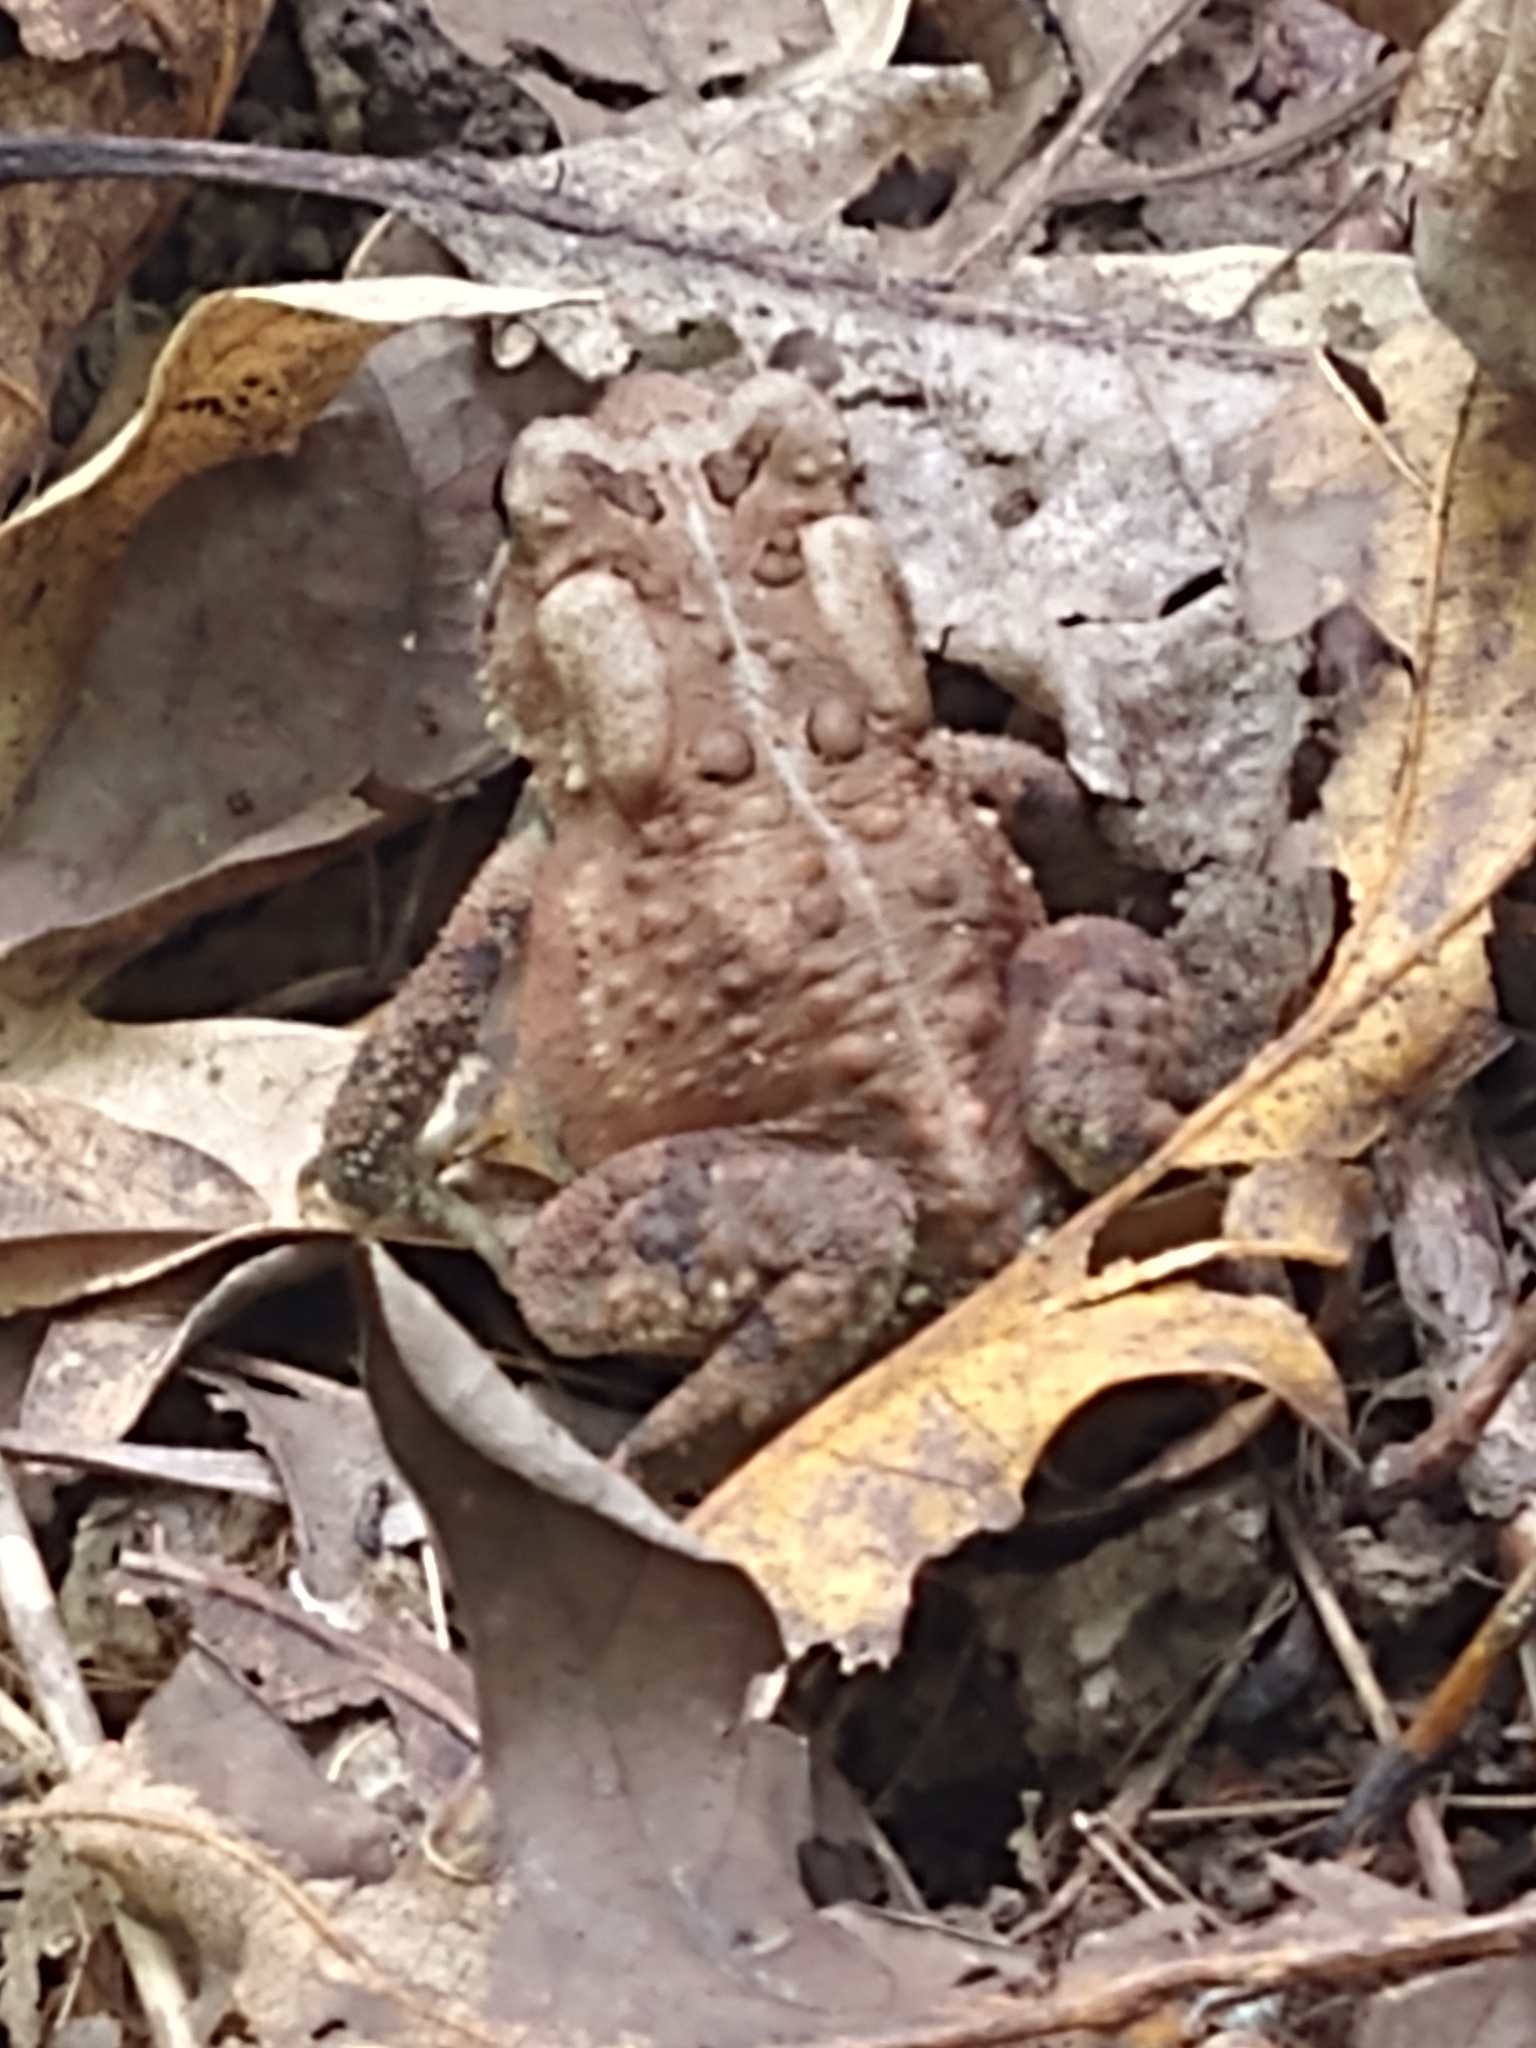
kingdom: Animalia
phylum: Chordata
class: Amphibia
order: Anura
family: Bufonidae
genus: Anaxyrus
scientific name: Anaxyrus americanus
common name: American toad
